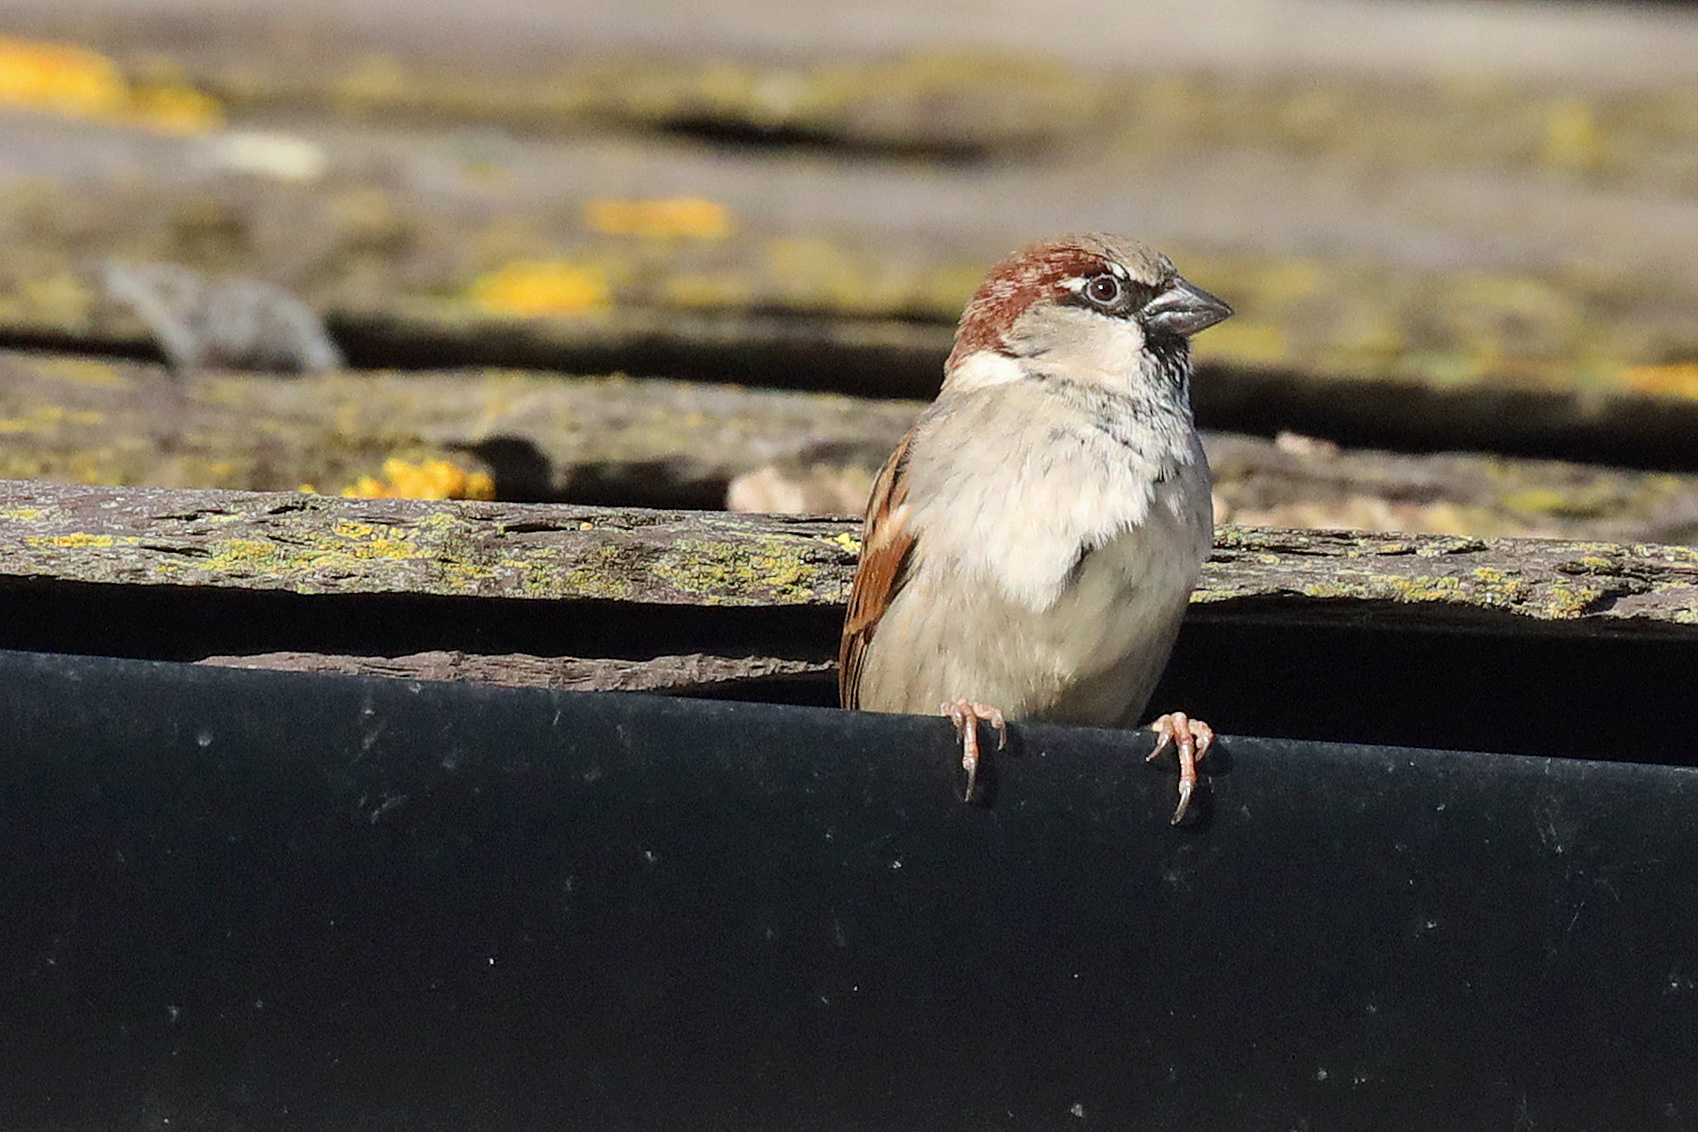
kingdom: Animalia
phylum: Chordata
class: Aves
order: Passeriformes
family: Passeridae
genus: Passer
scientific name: Passer domesticus
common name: House sparrow
